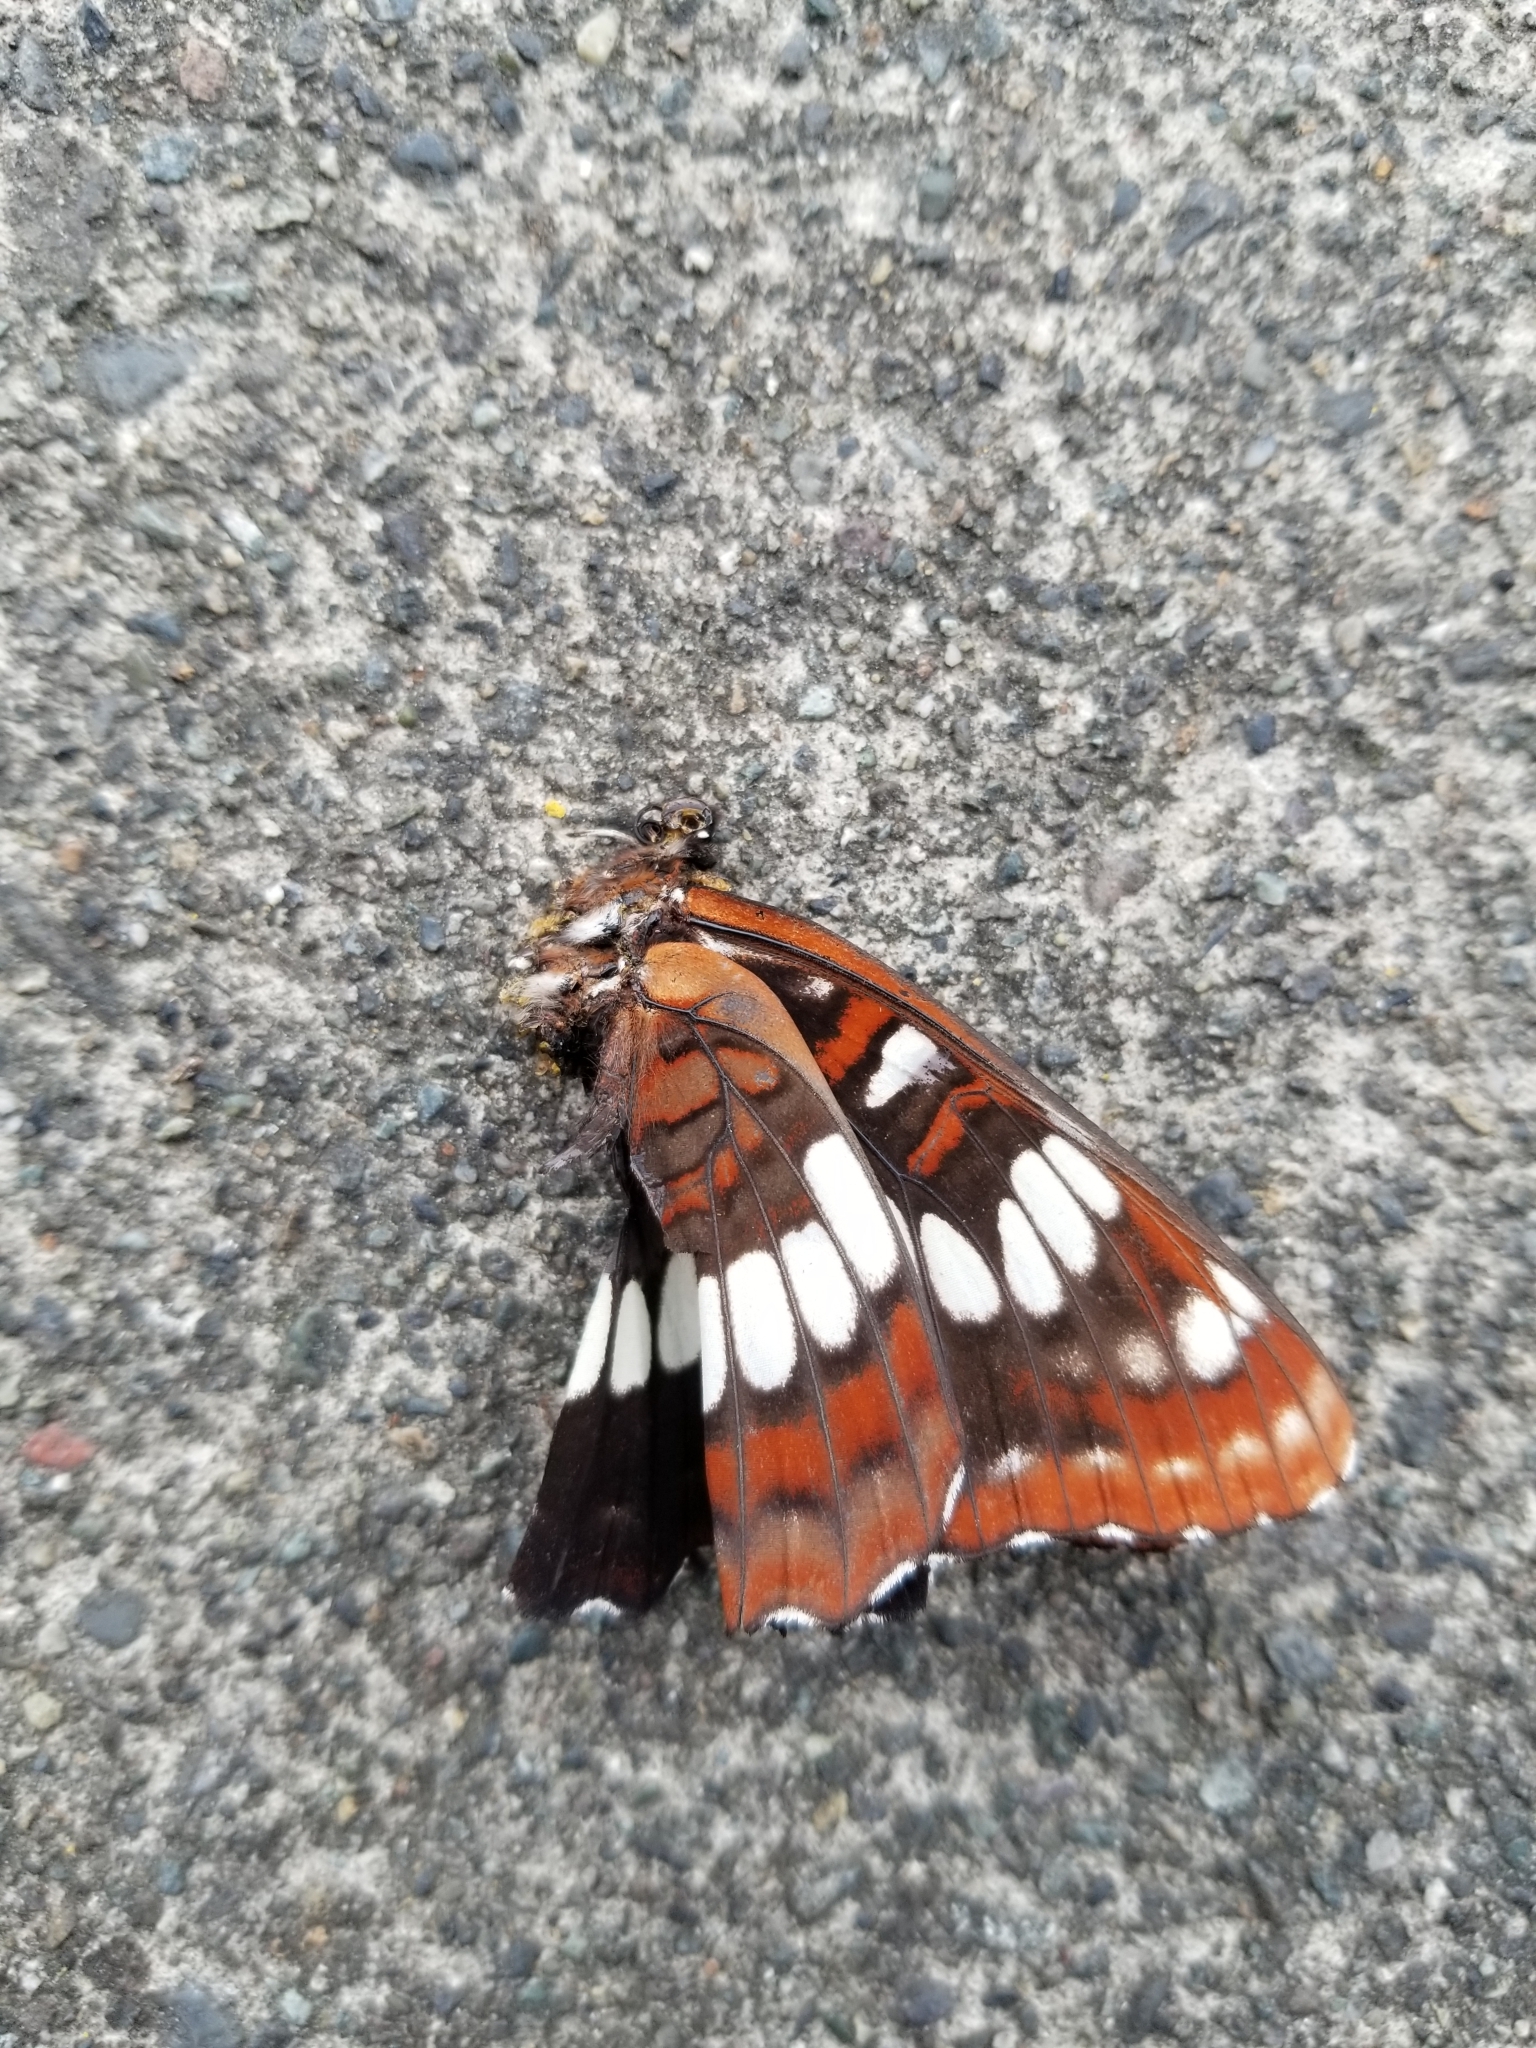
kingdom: Animalia
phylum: Arthropoda
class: Insecta
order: Lepidoptera
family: Nymphalidae
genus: Limenitis
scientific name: Limenitis lorquini
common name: Lorquin's admiral
